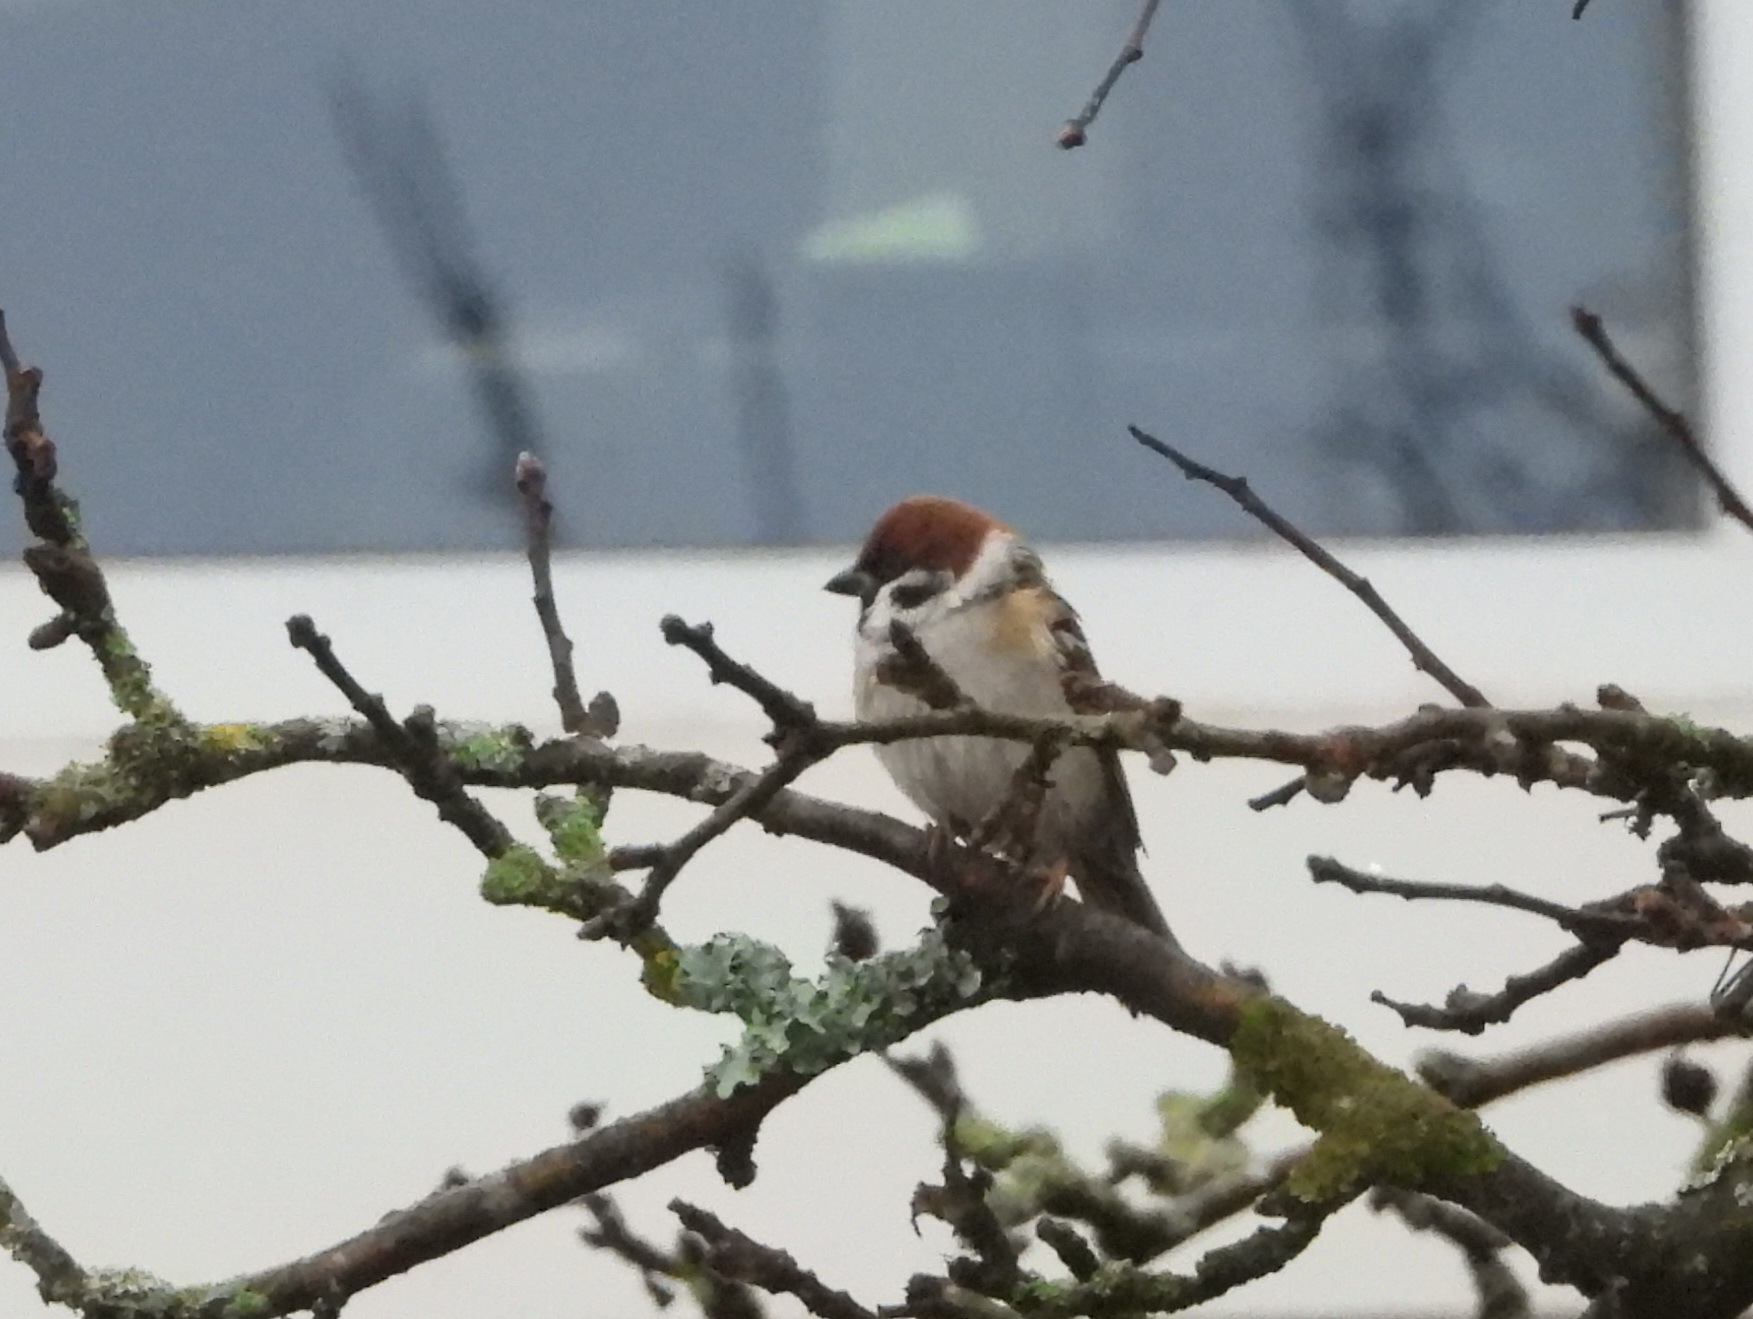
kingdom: Animalia
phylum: Chordata
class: Aves
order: Passeriformes
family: Passeridae
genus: Passer
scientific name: Passer montanus
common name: Eurasian tree sparrow
